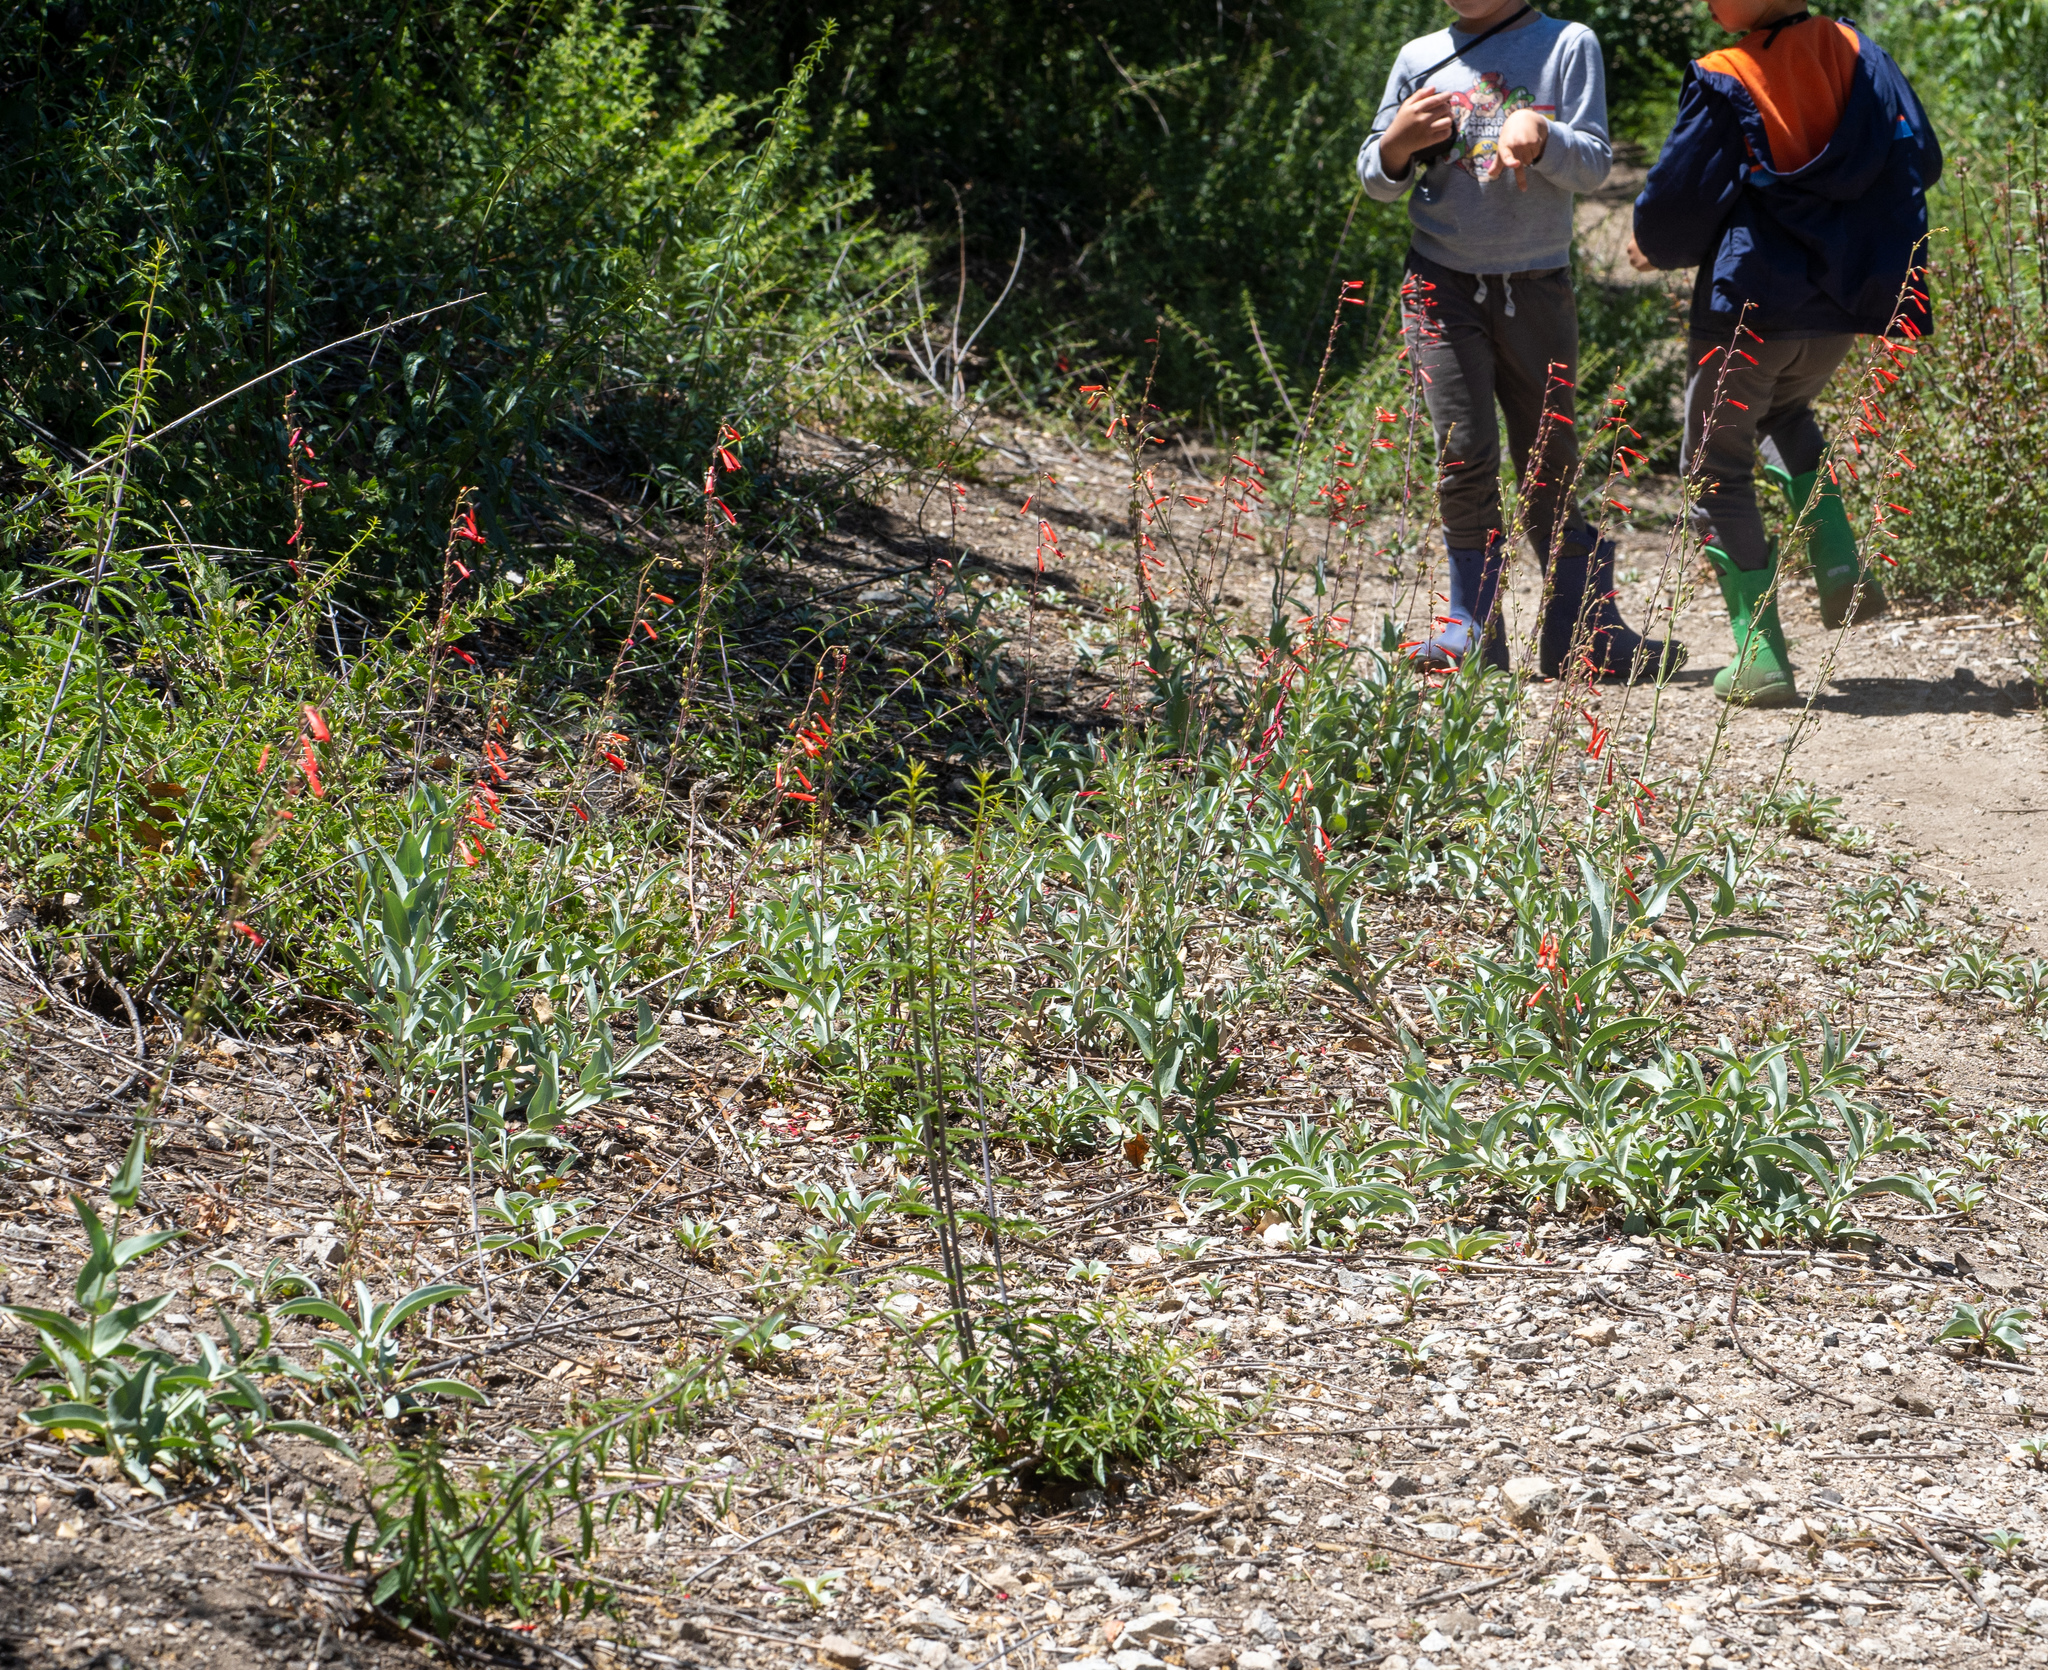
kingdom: Plantae
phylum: Tracheophyta
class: Magnoliopsida
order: Lamiales
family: Plantaginaceae
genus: Penstemon
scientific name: Penstemon centranthifolius
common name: Scarlet bugler
